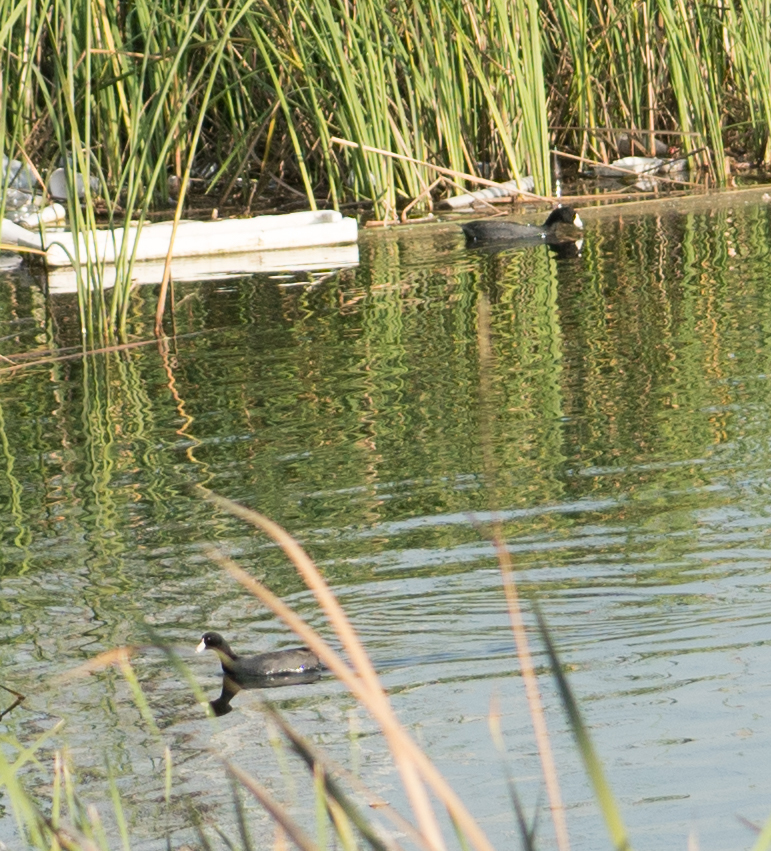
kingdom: Animalia
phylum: Chordata
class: Aves
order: Gruiformes
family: Rallidae
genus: Fulica
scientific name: Fulica americana
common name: American coot
